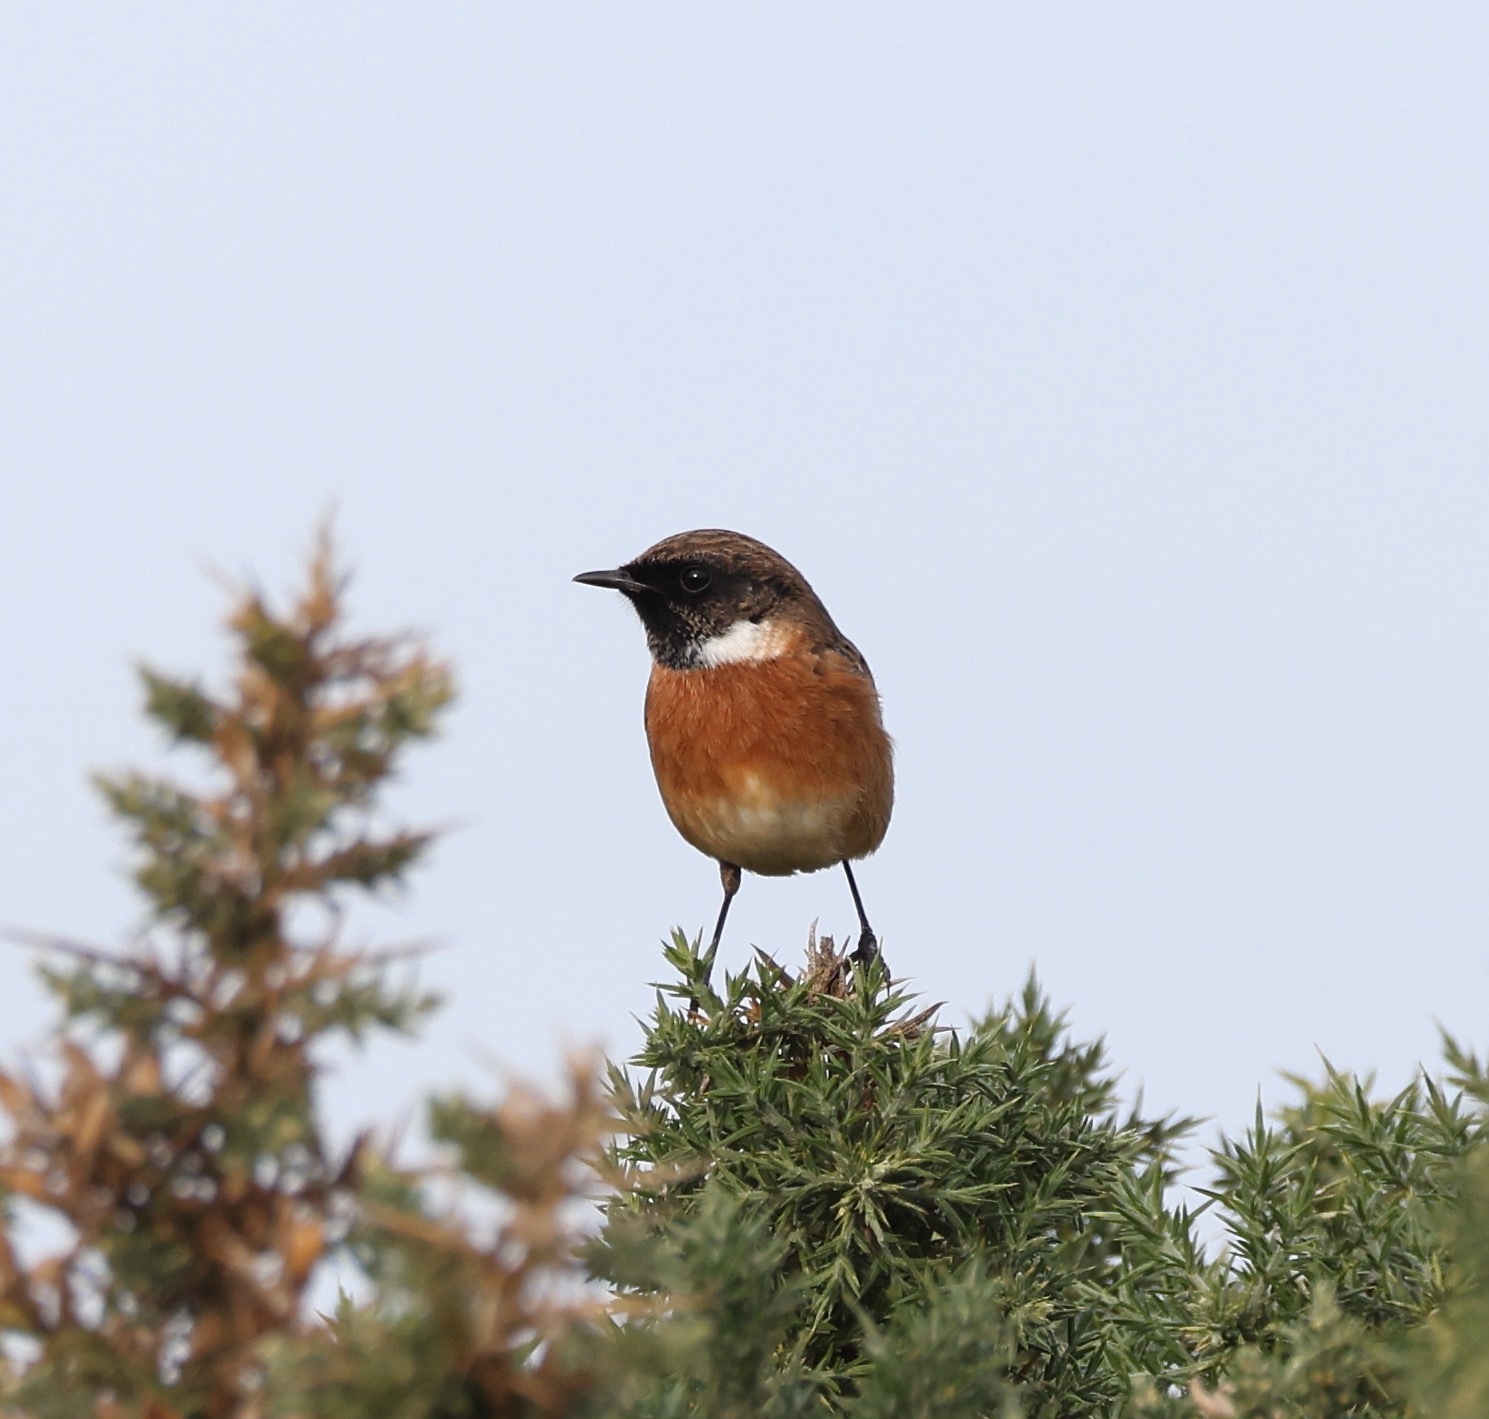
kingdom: Animalia
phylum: Chordata
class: Aves
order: Passeriformes
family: Muscicapidae
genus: Saxicola
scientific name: Saxicola rubicola
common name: European stonechat
